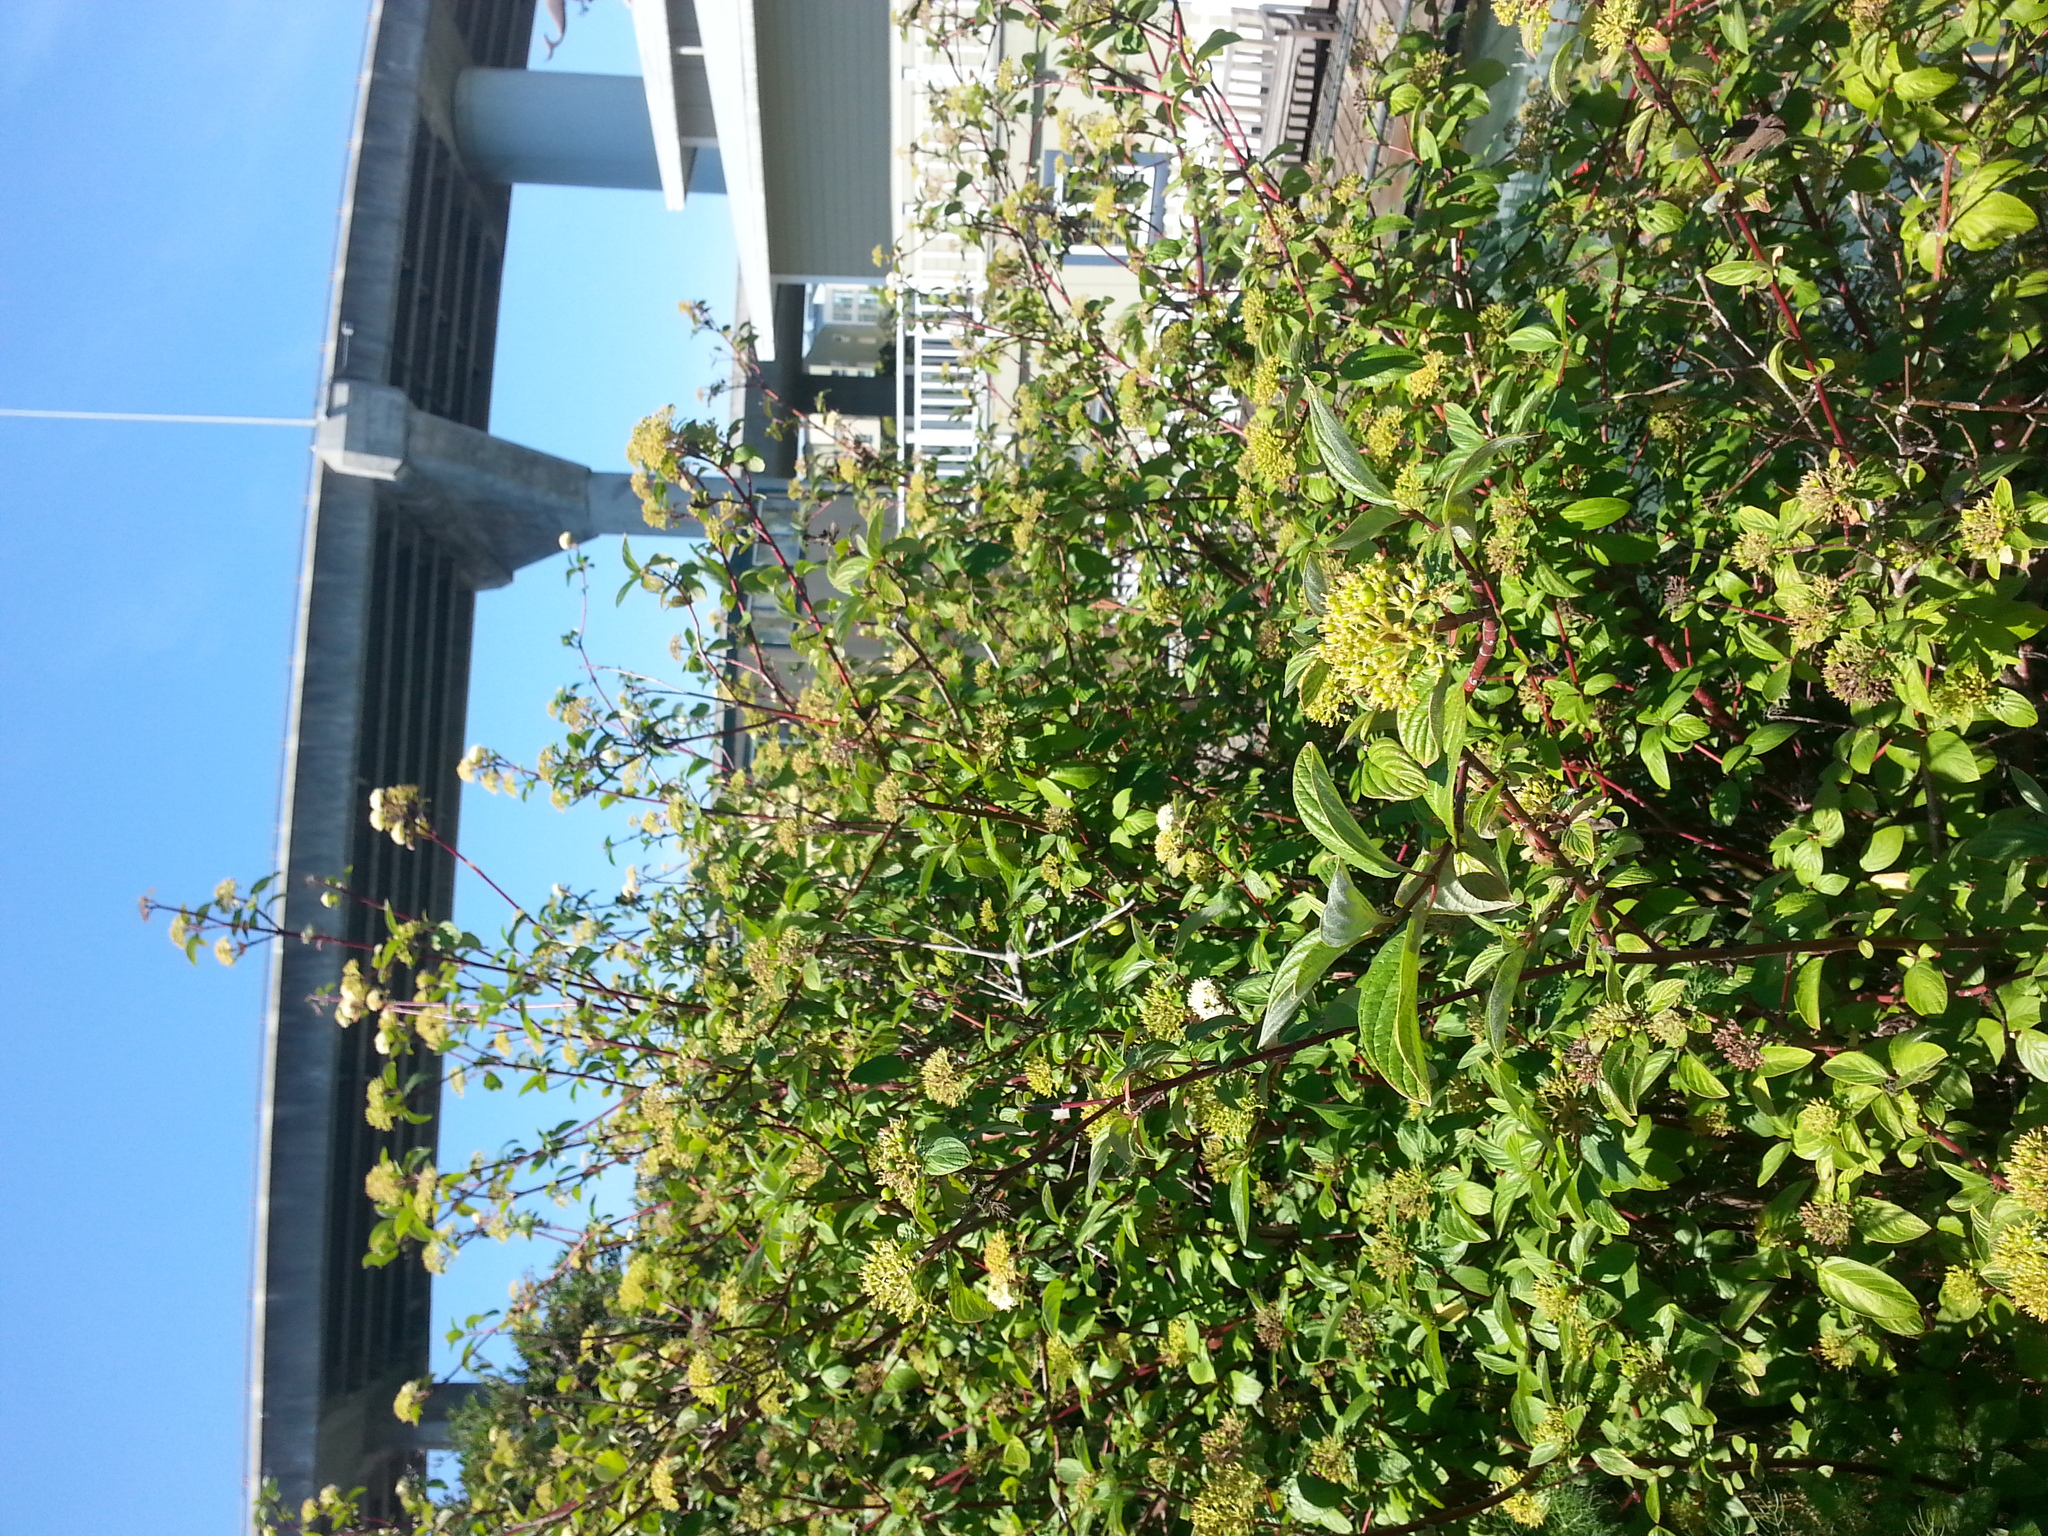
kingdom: Plantae
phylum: Tracheophyta
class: Magnoliopsida
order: Cornales
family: Cornaceae
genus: Cornus
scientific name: Cornus sericea
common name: Red-osier dogwood
